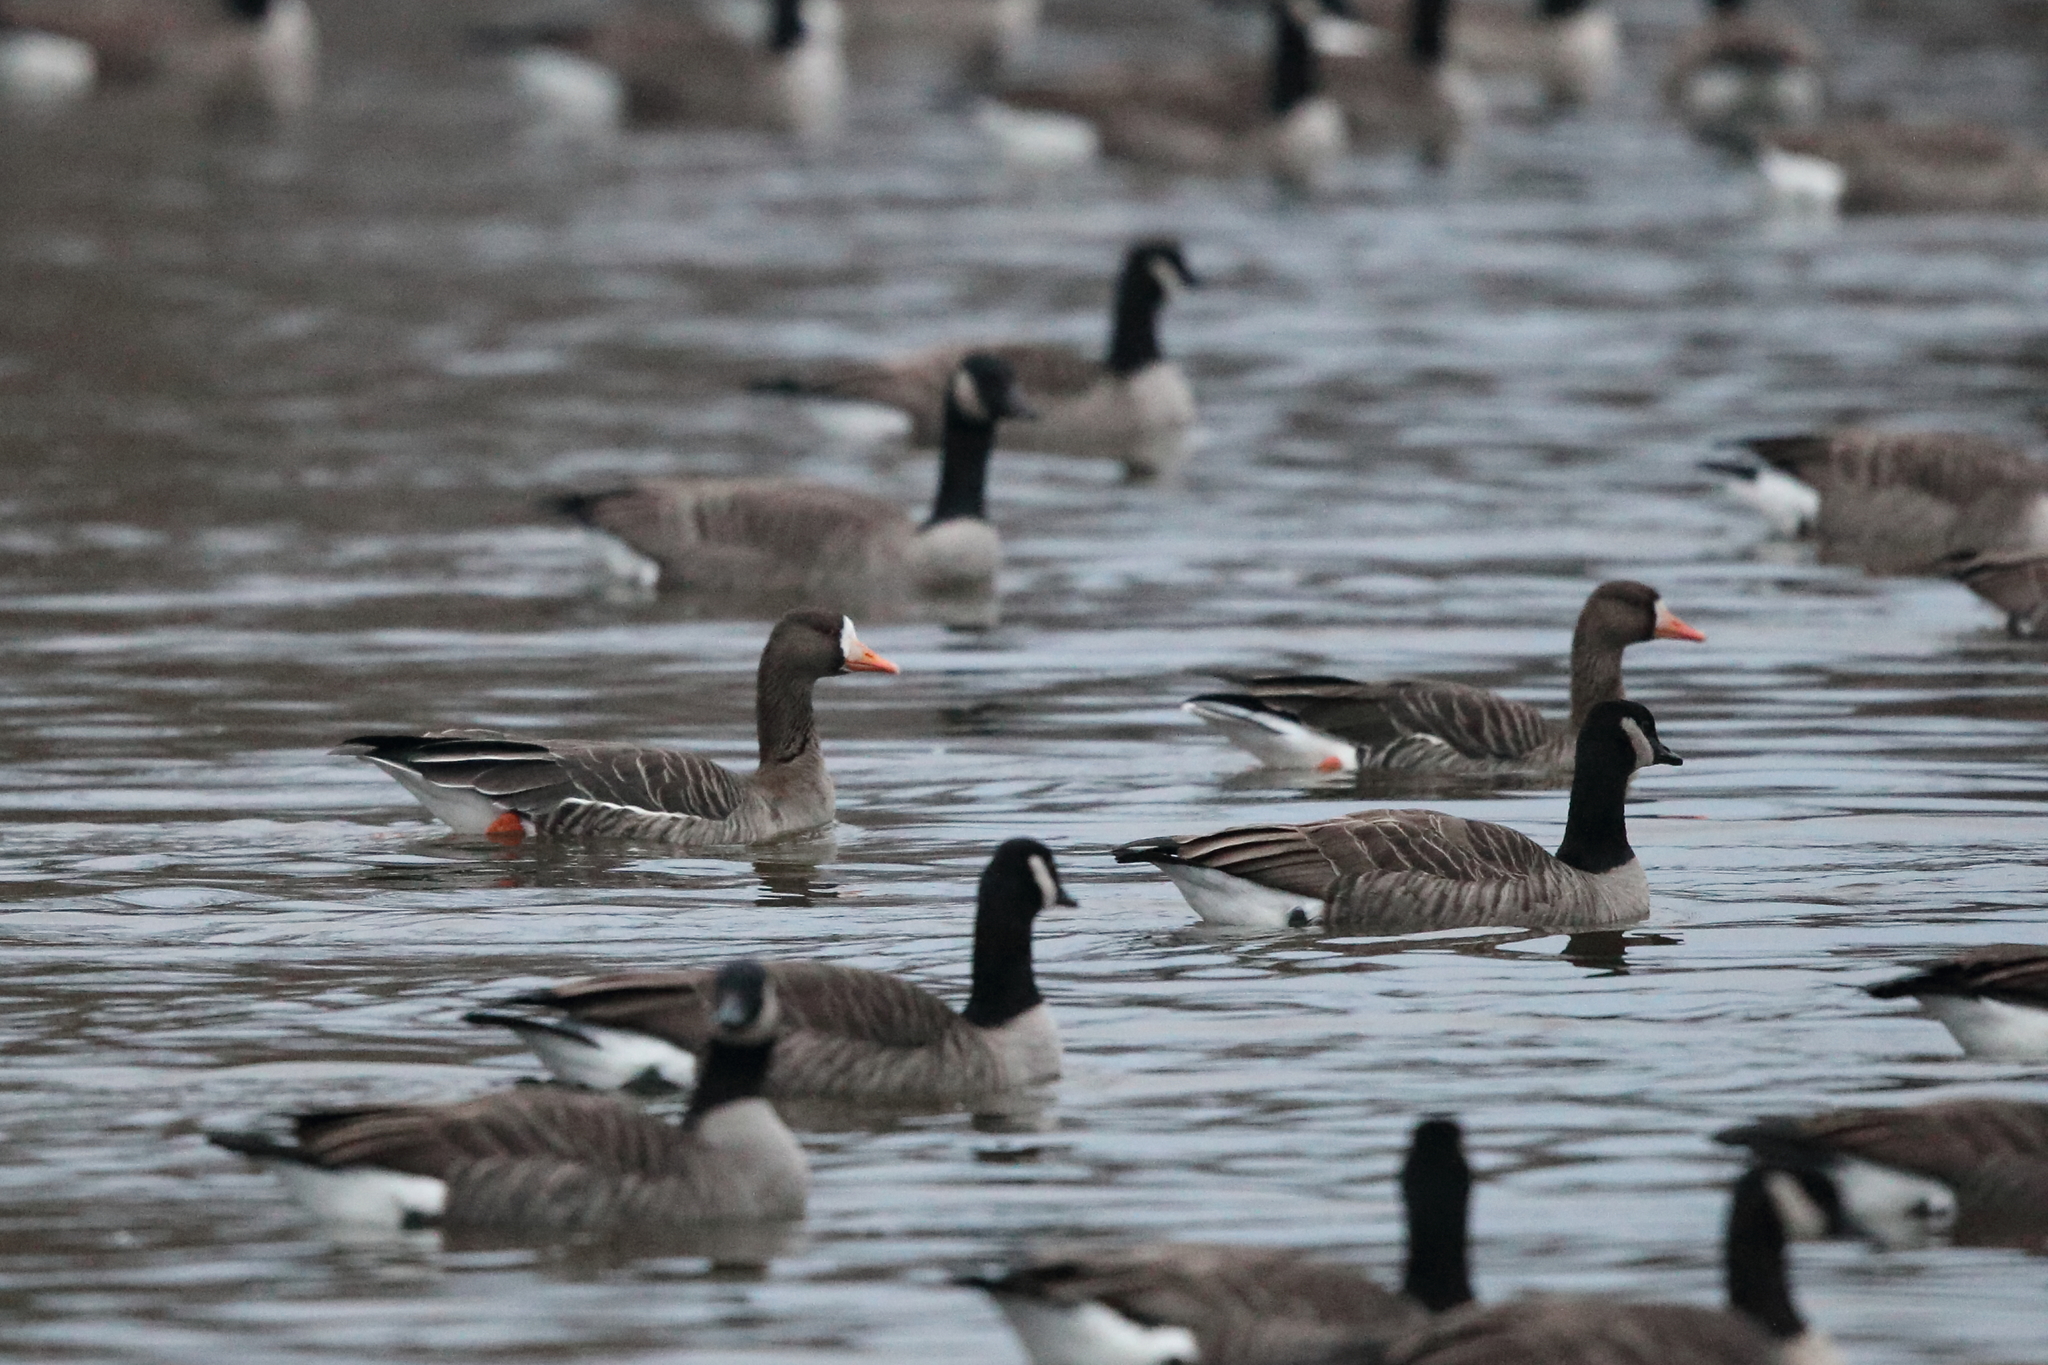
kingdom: Animalia
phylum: Chordata
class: Aves
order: Anseriformes
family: Anatidae
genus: Anser
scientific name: Anser albifrons
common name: Greater white-fronted goose
